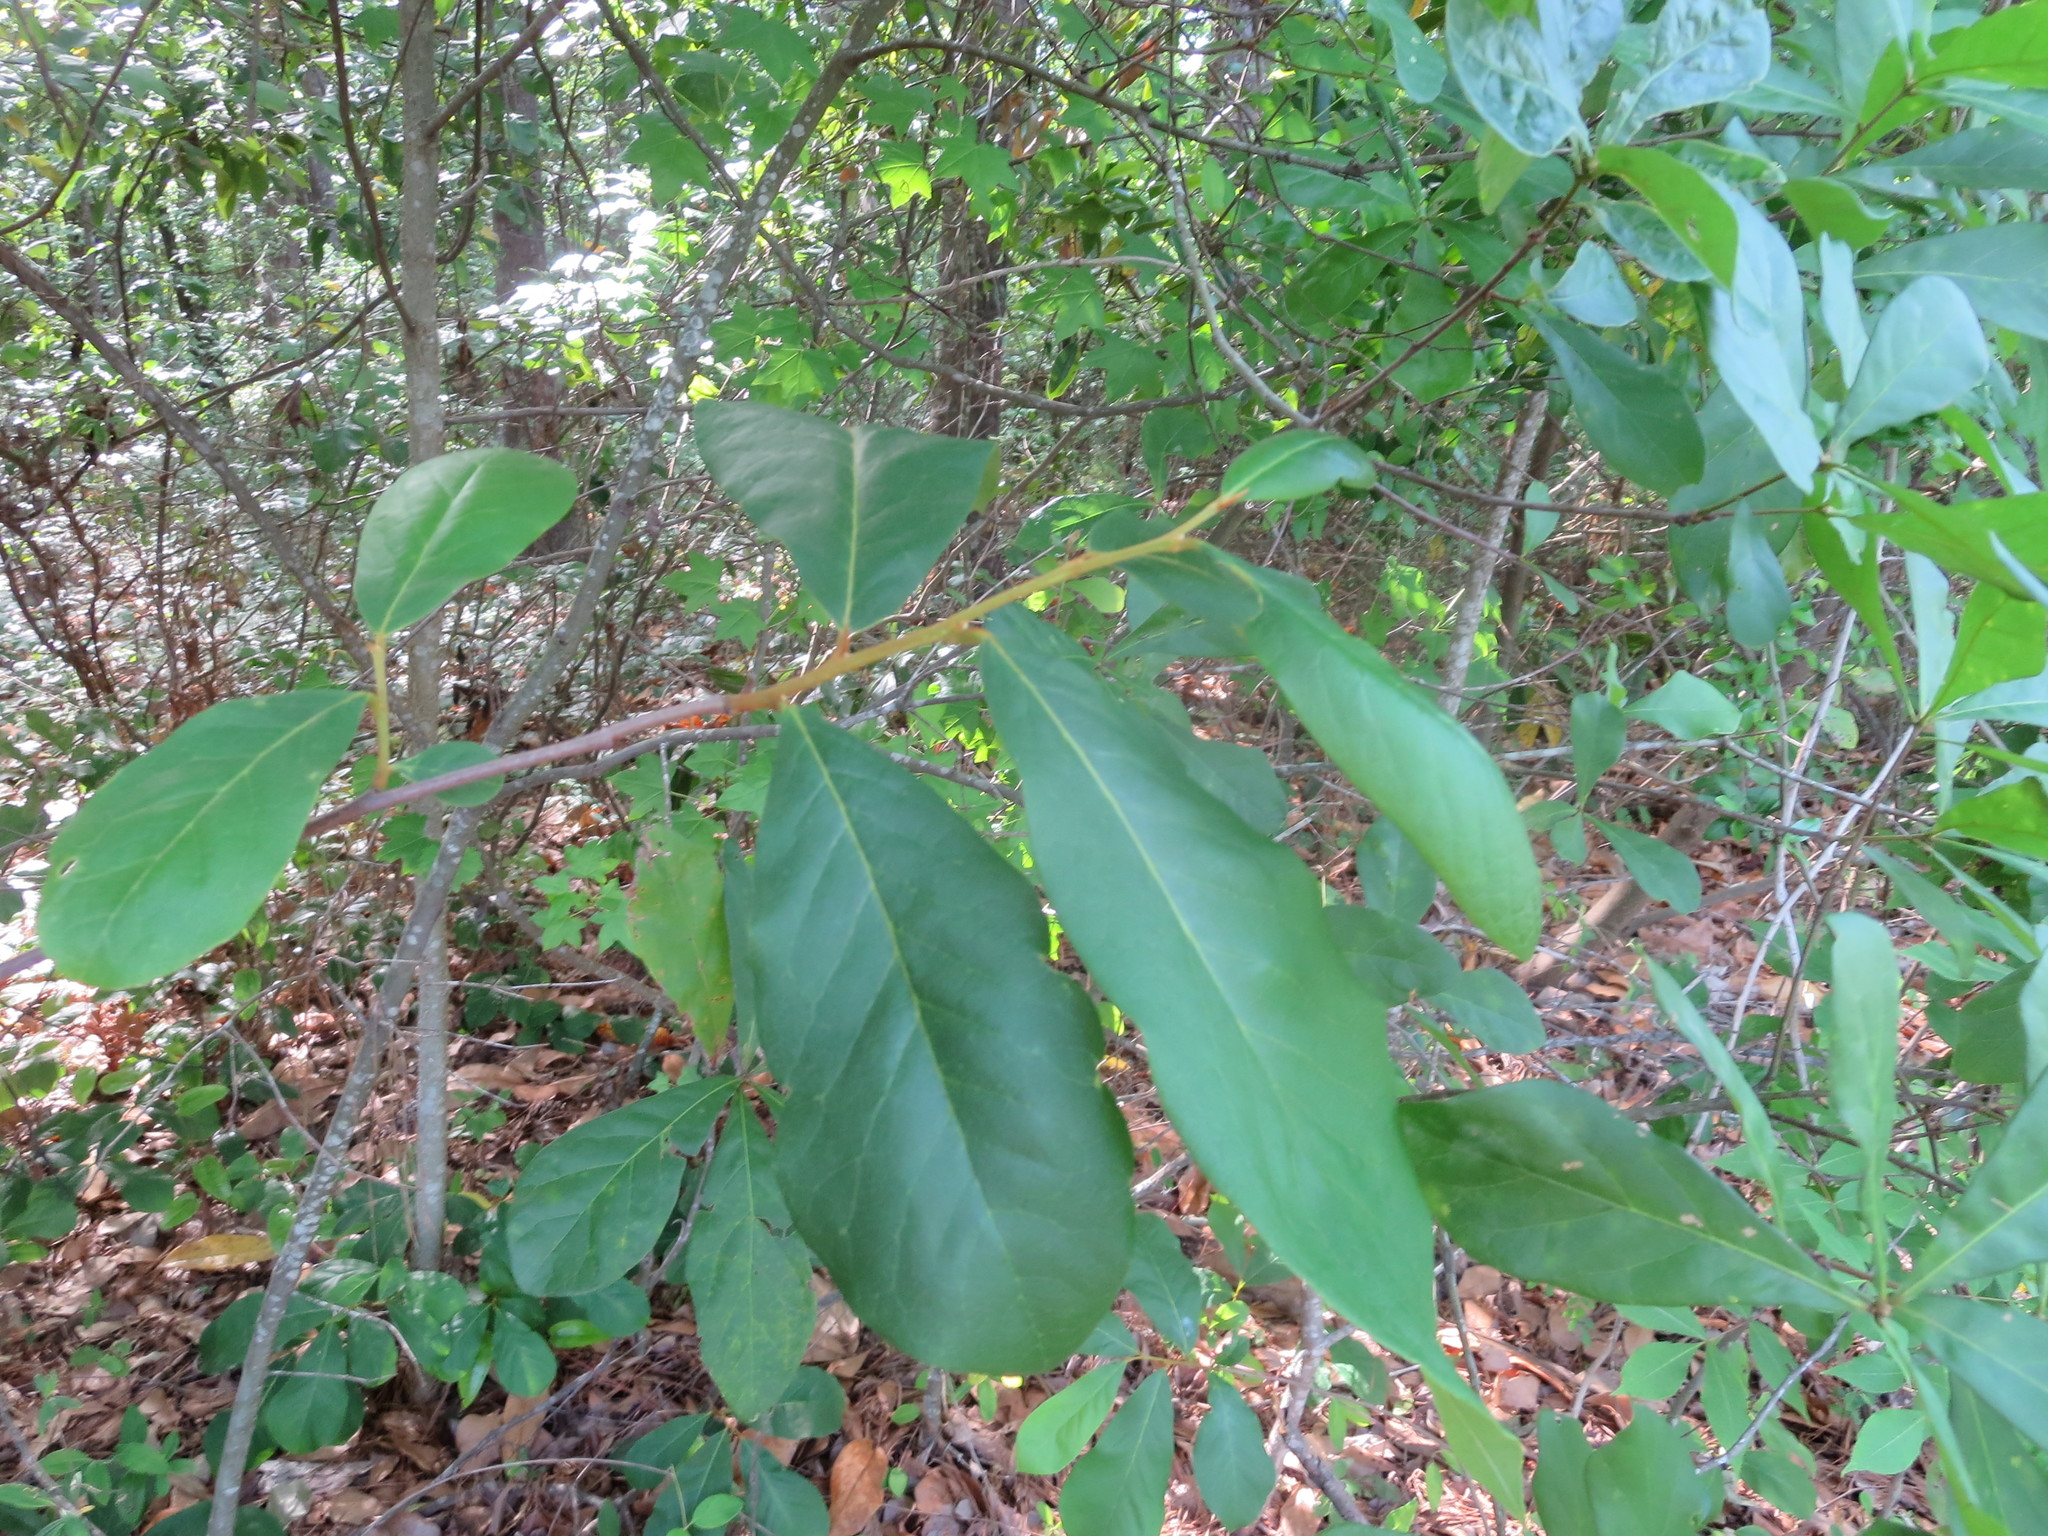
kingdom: Plantae
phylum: Tracheophyta
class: Magnoliopsida
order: Magnoliales
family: Annonaceae
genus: Asimina
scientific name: Asimina parviflora
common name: Dwarf pawpaw
